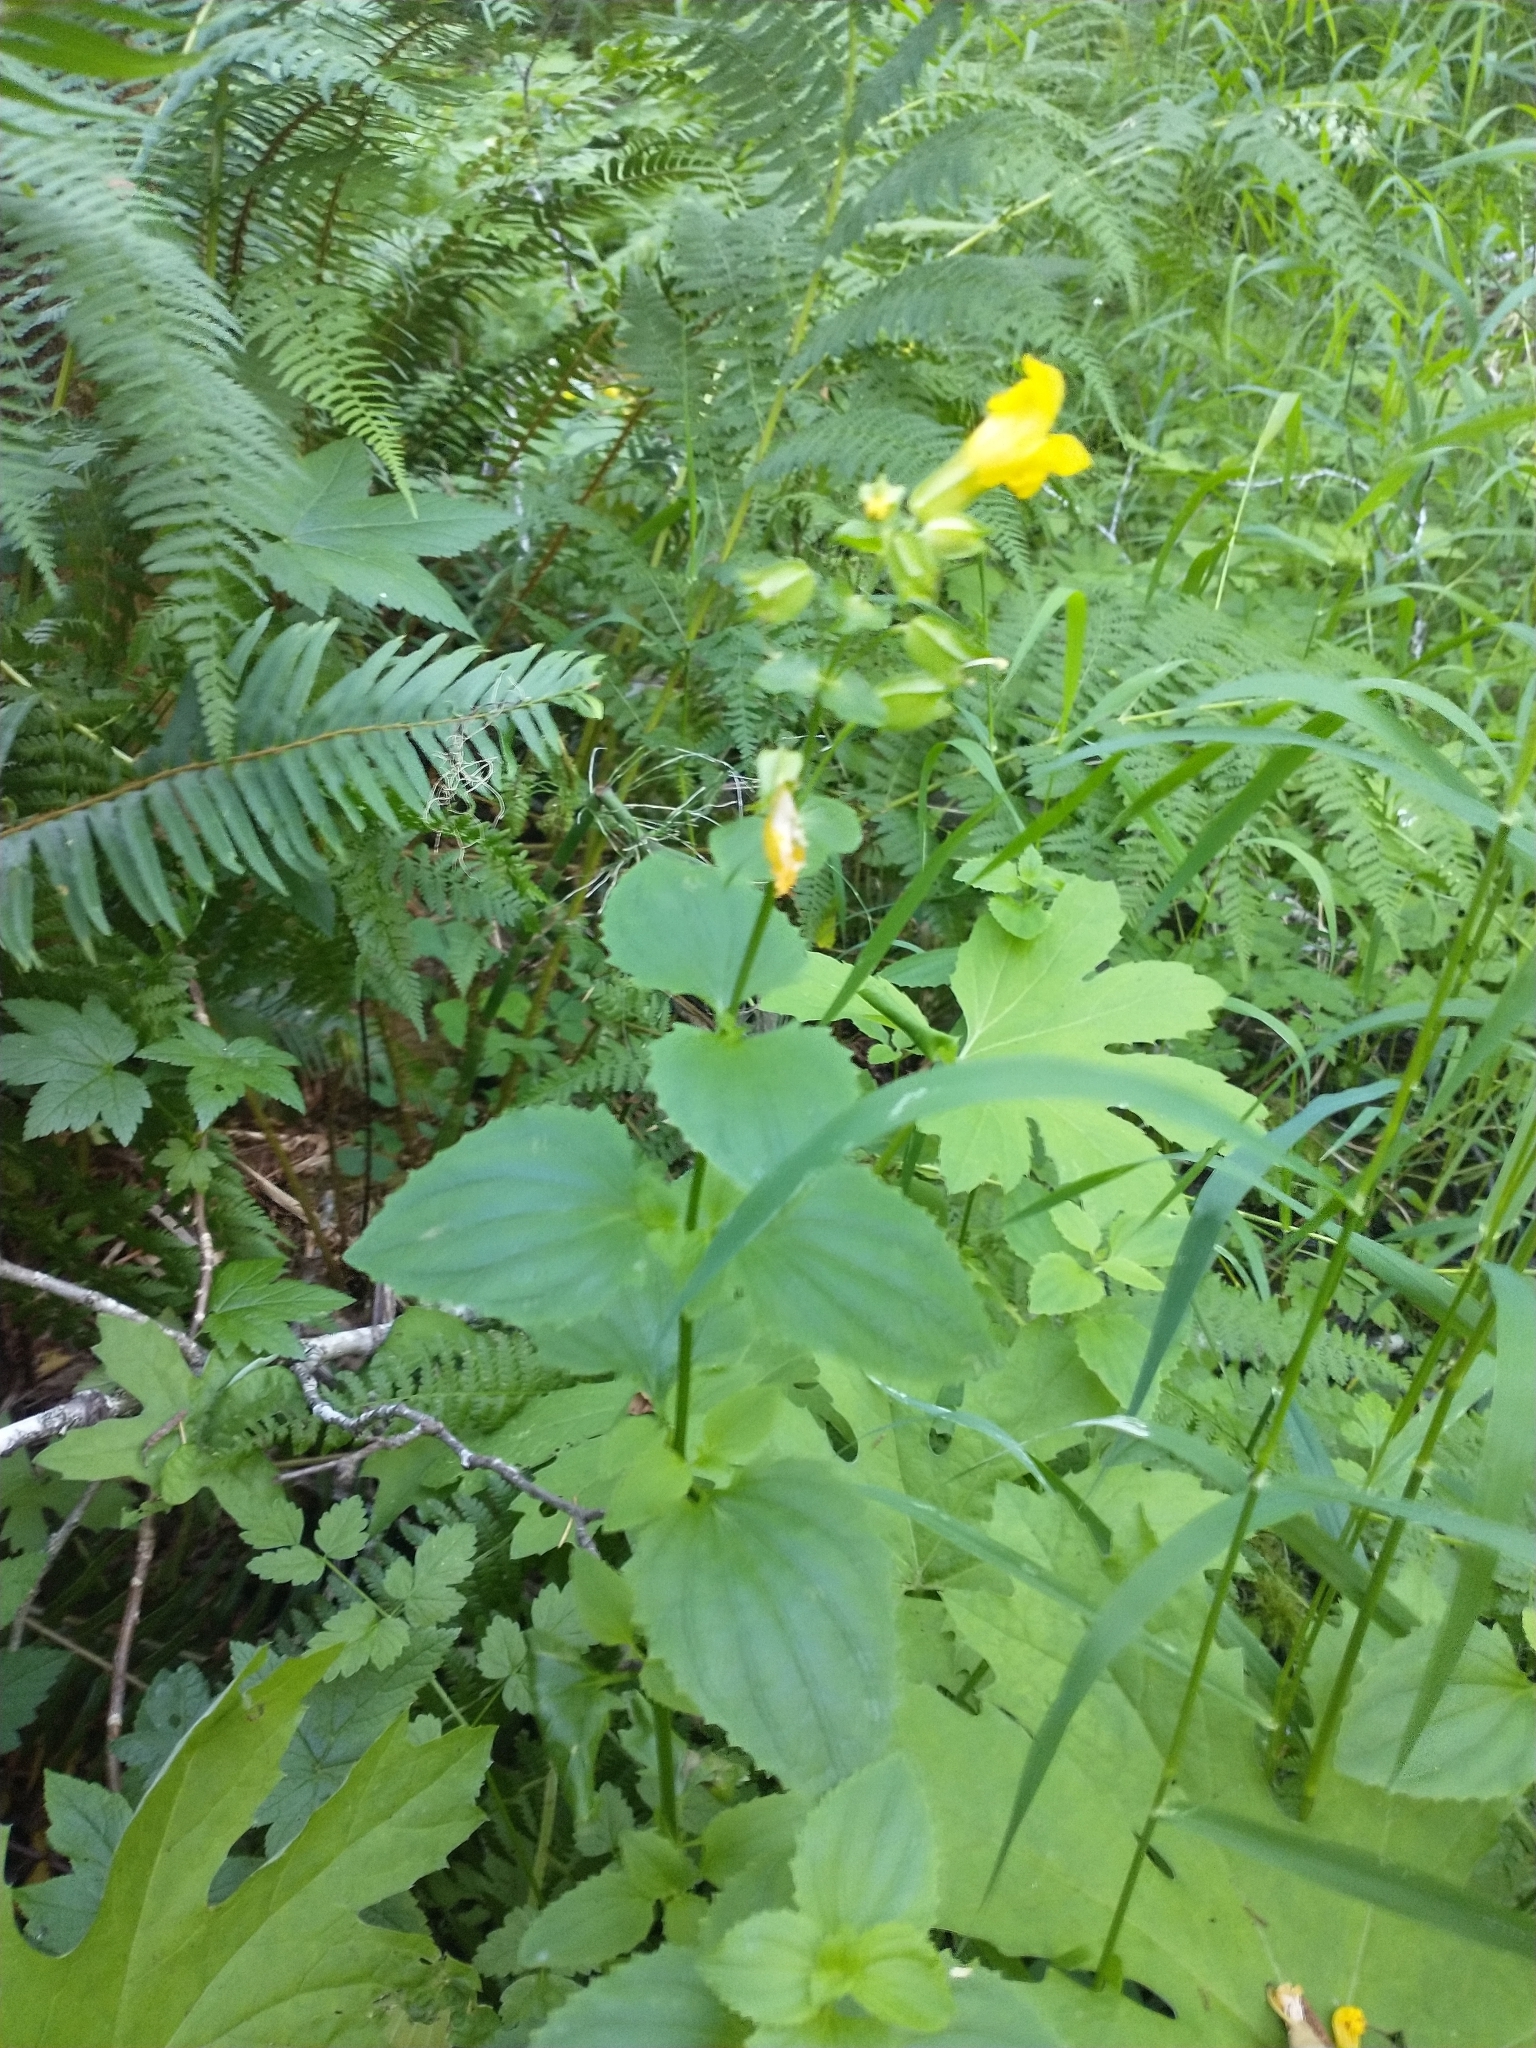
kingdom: Plantae
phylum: Tracheophyta
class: Magnoliopsida
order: Lamiales
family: Phrymaceae
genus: Erythranthe
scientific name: Erythranthe decora
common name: Mannered monkeyflower
